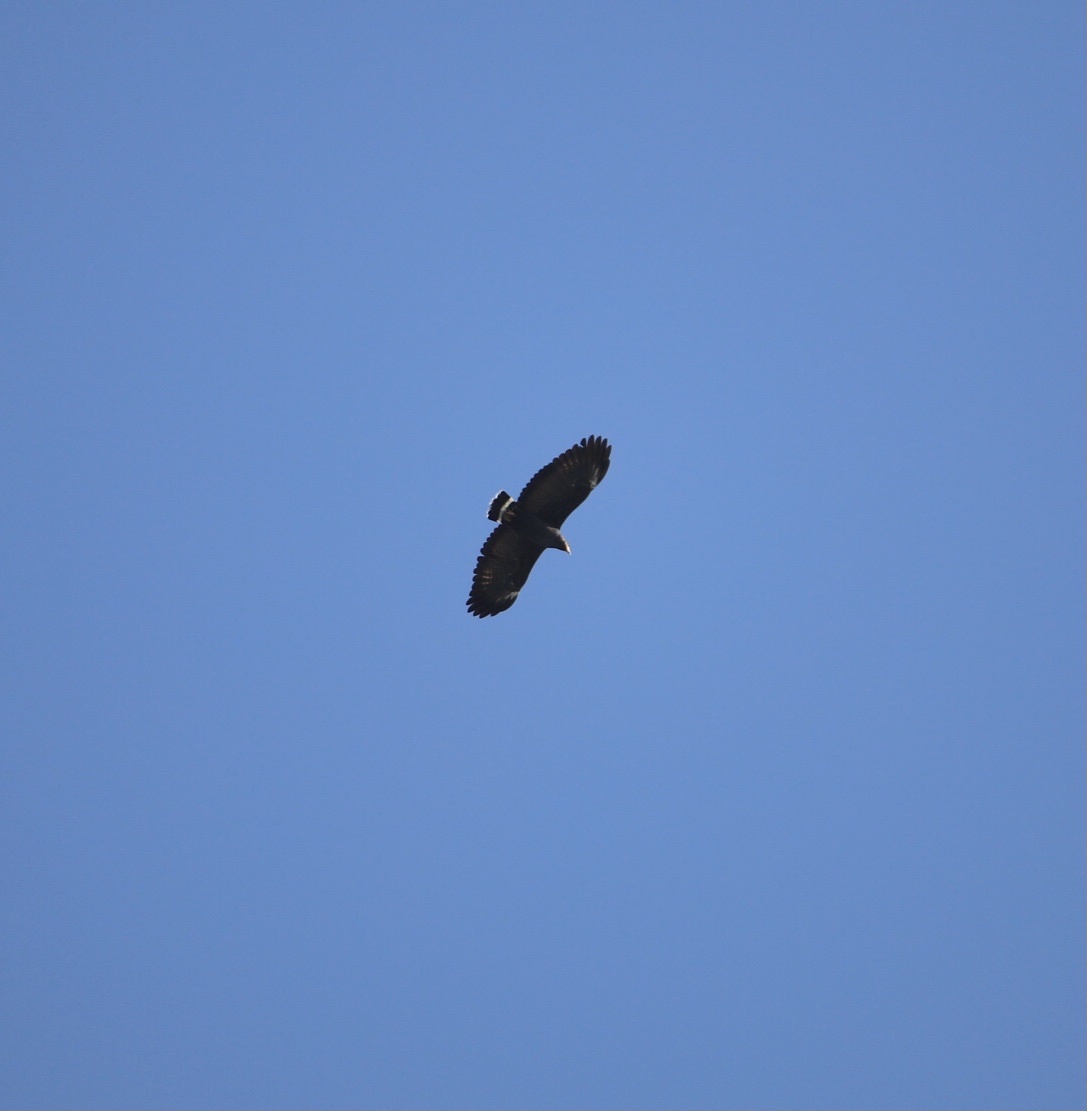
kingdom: Animalia
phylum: Chordata
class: Aves
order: Accipitriformes
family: Accipitridae
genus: Buteogallus
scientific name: Buteogallus anthracinus
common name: Common black hawk
